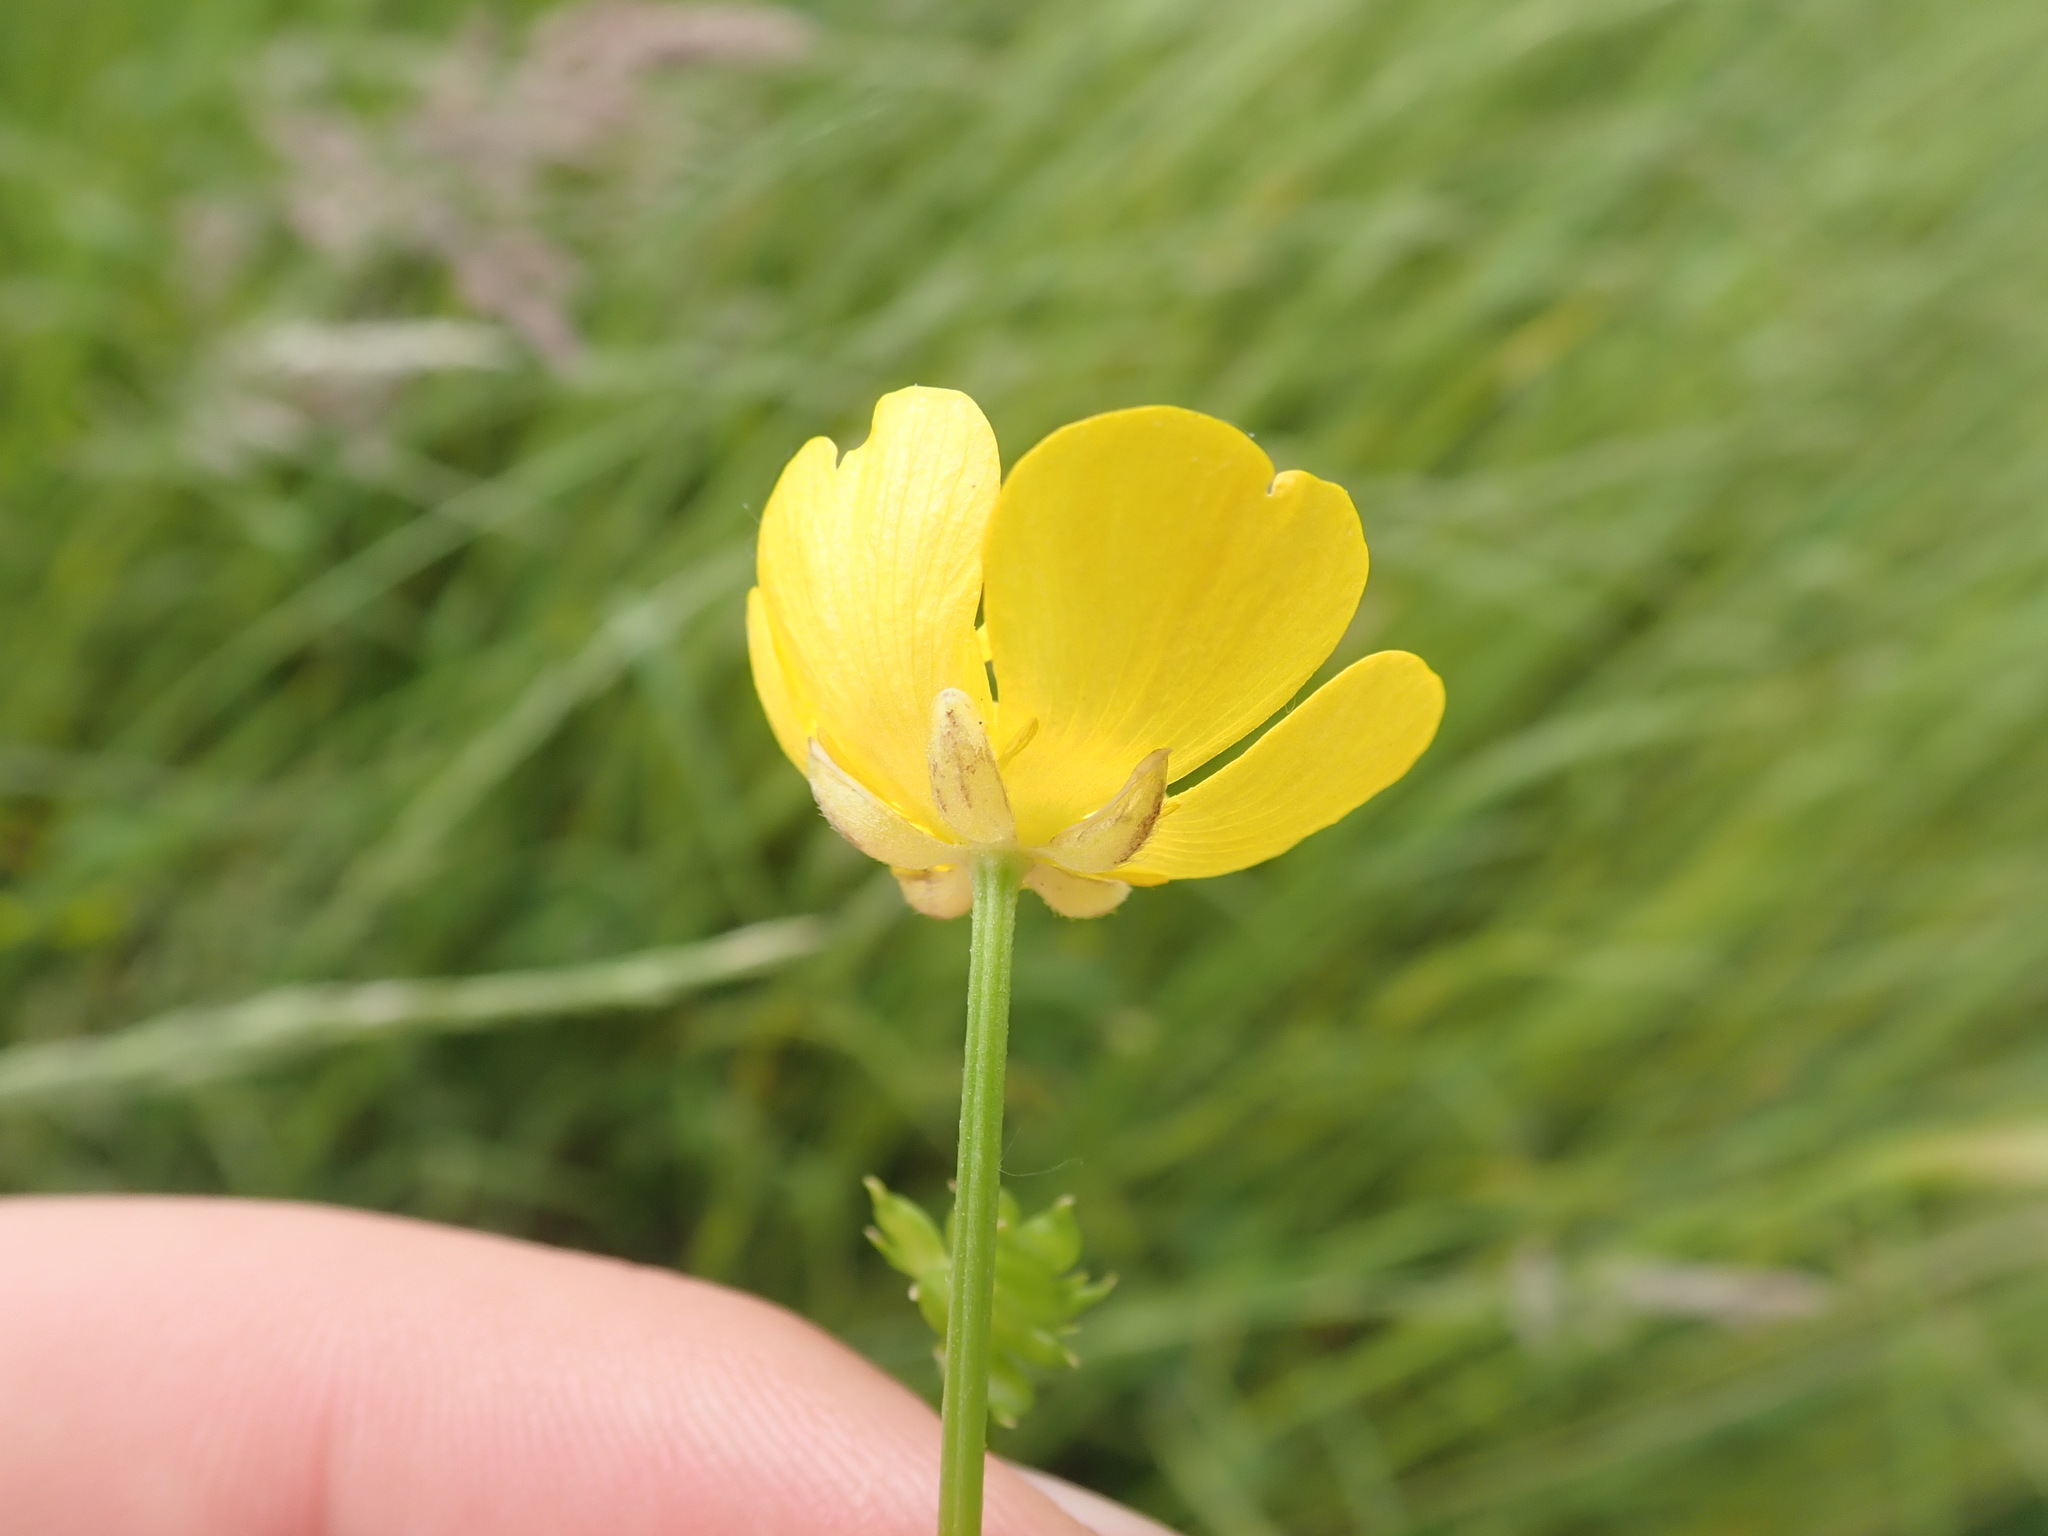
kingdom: Plantae
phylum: Tracheophyta
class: Magnoliopsida
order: Ranunculales
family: Ranunculaceae
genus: Ranunculus
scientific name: Ranunculus repens
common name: Creeping buttercup
